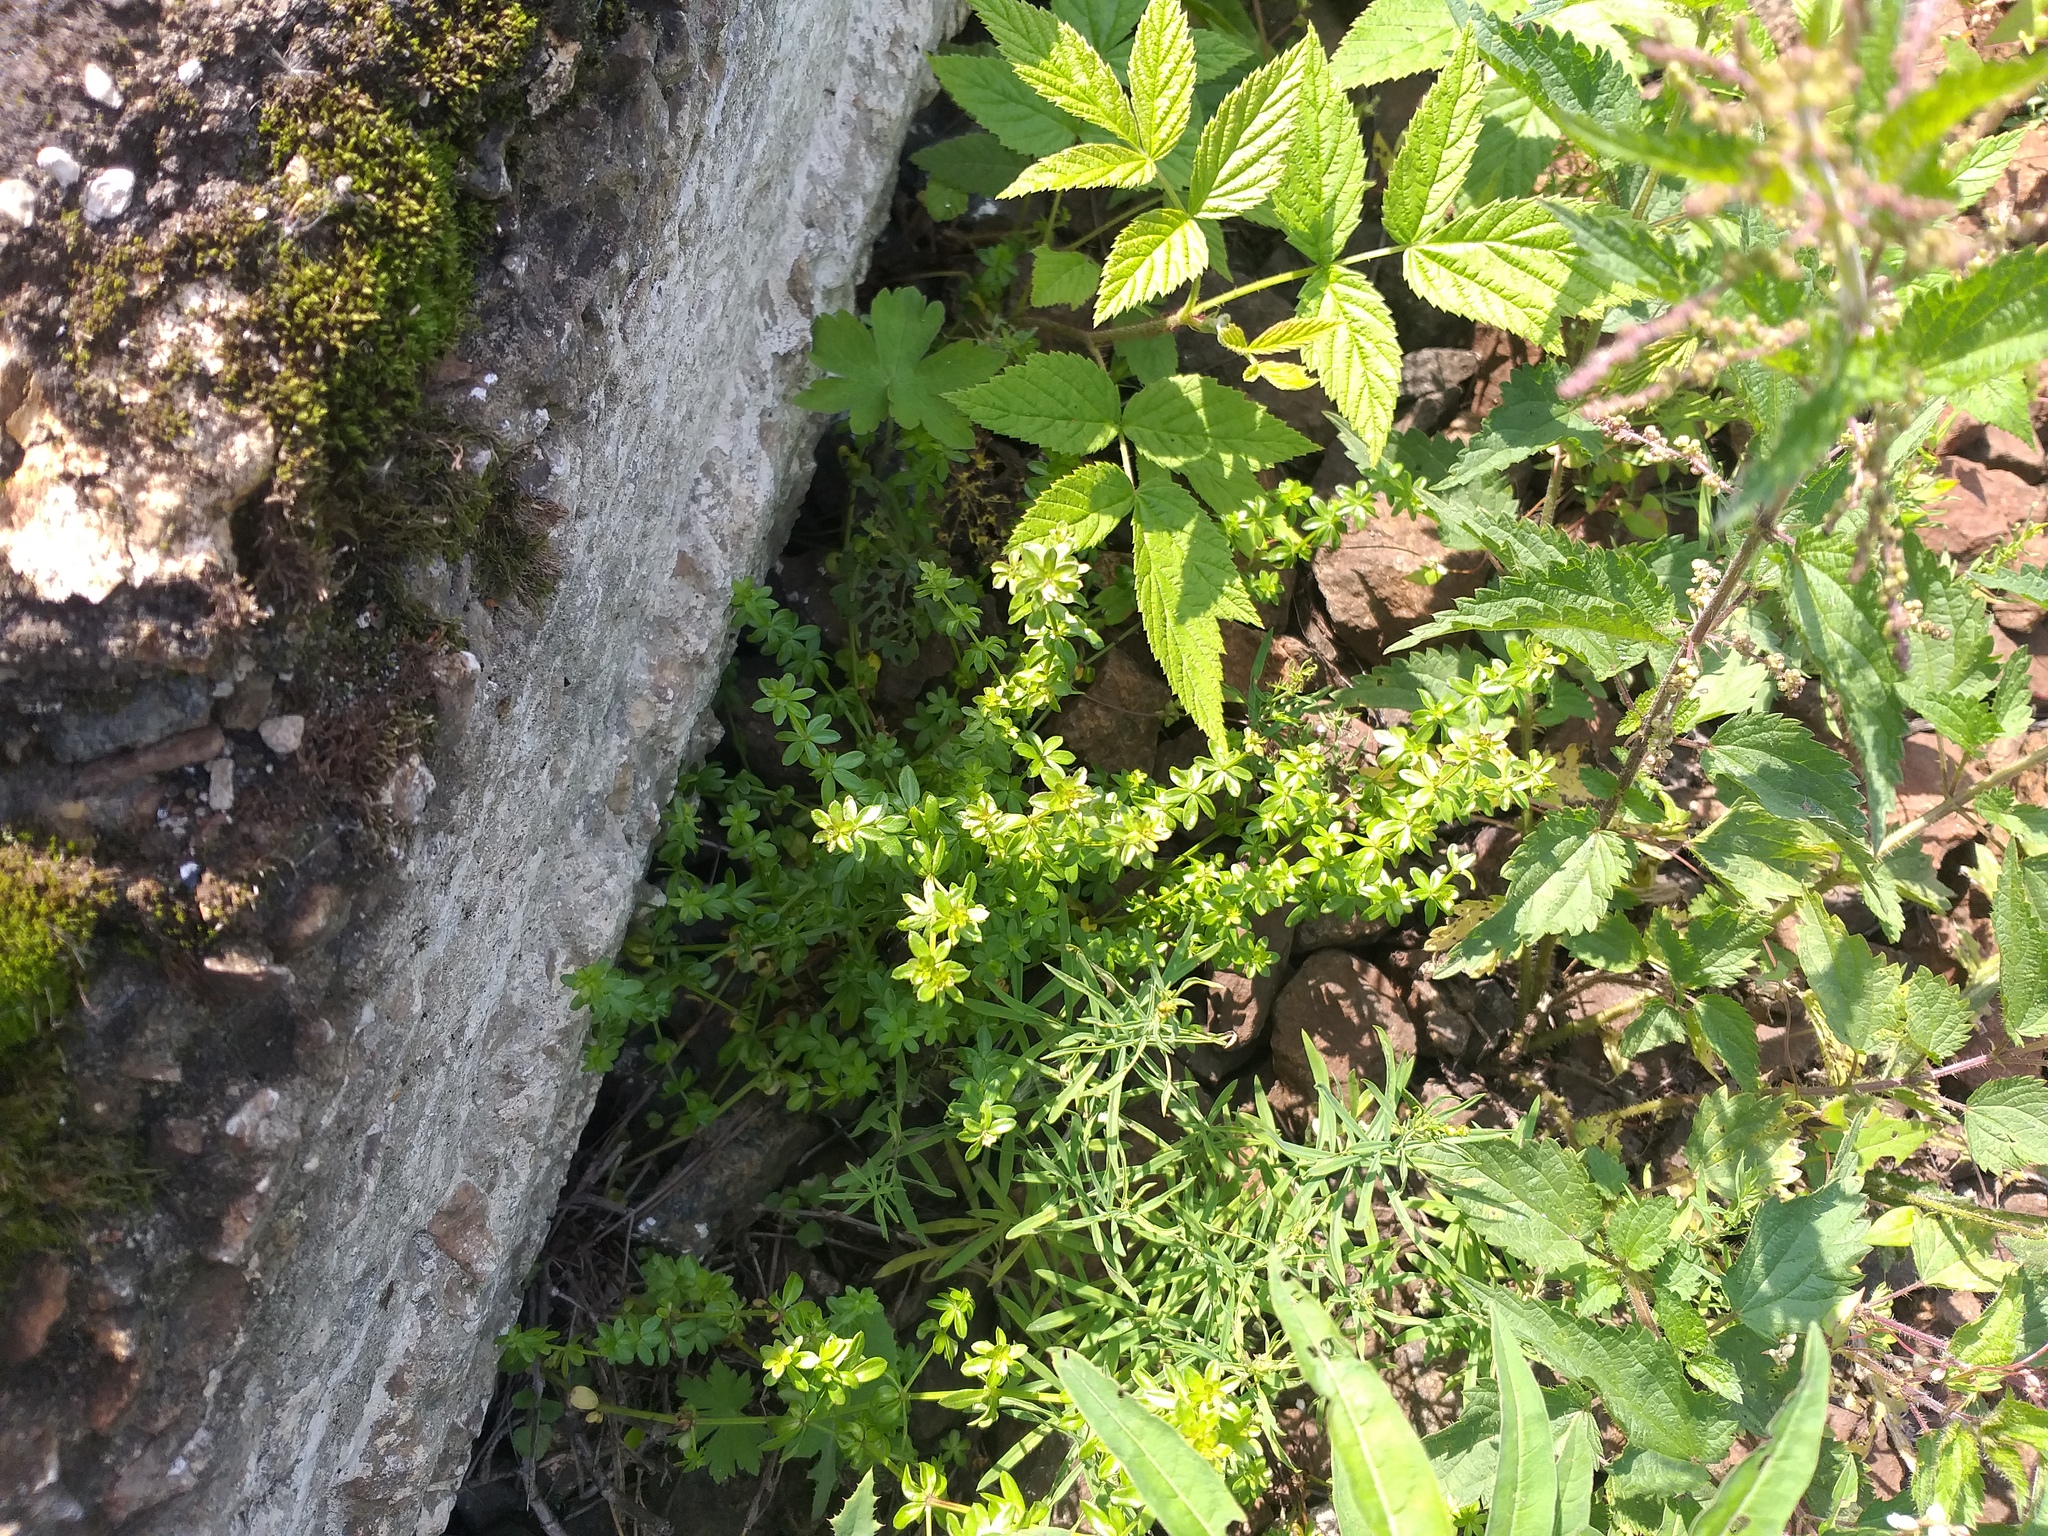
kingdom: Plantae
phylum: Tracheophyta
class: Magnoliopsida
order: Gentianales
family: Rubiaceae
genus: Galium
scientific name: Galium mollugo
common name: Hedge bedstraw
